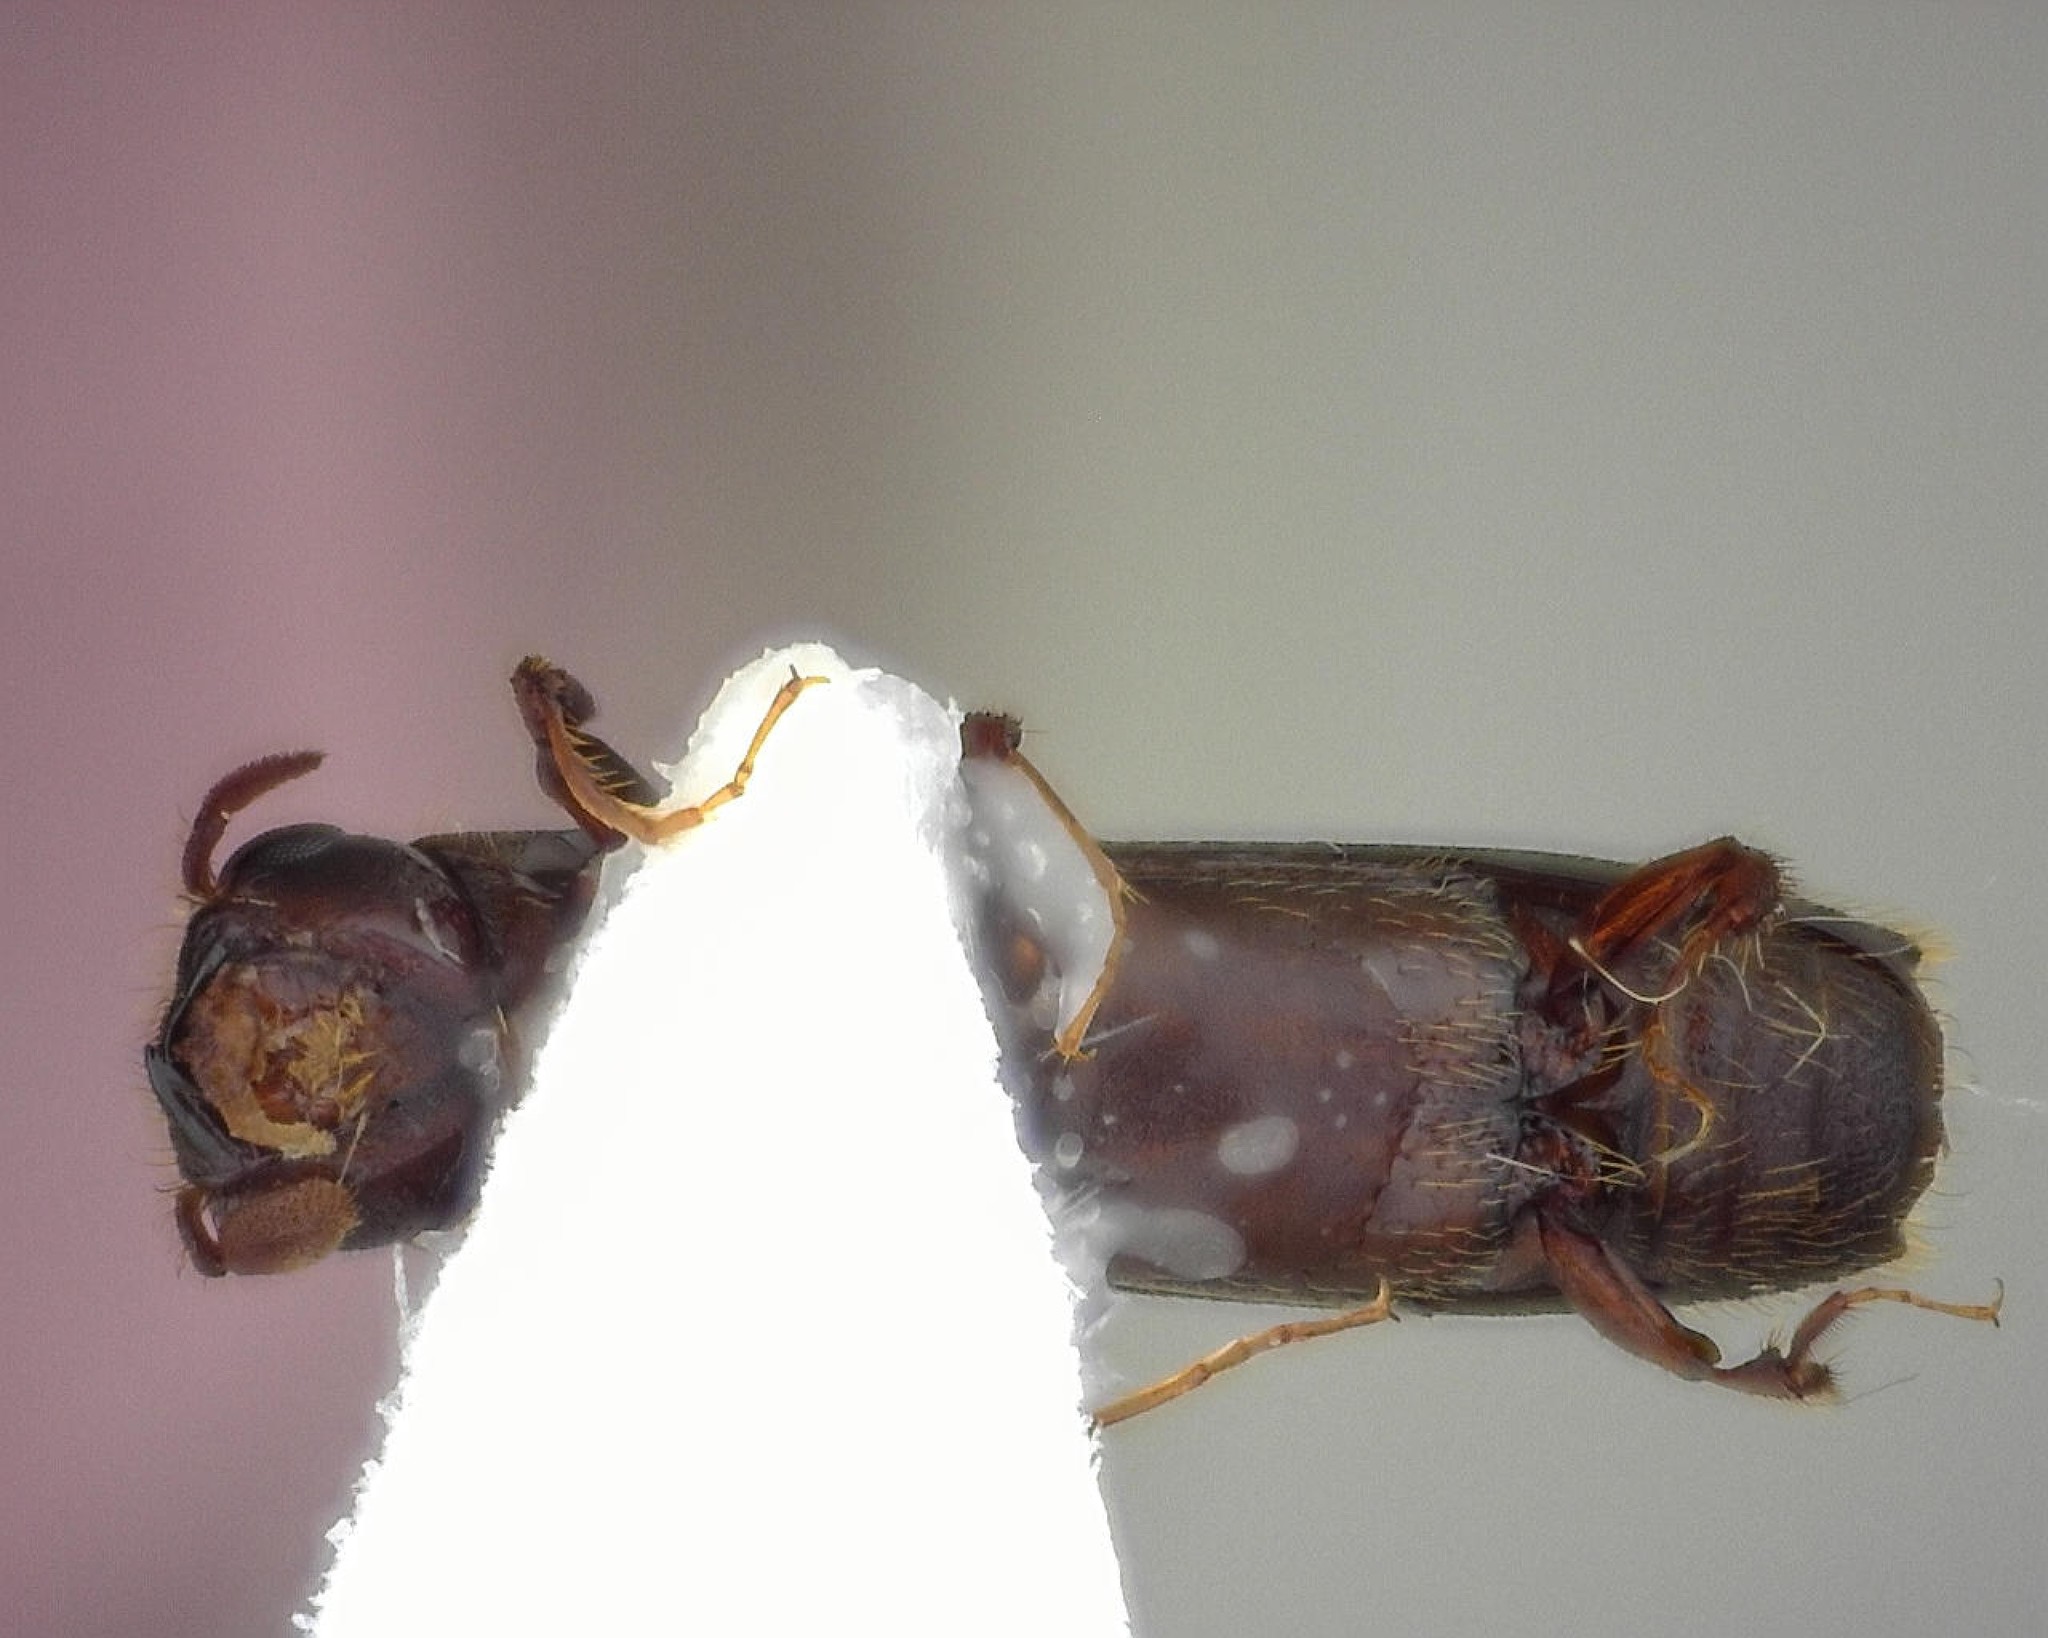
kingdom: Animalia
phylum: Arthropoda
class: Insecta
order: Coleoptera
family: Curculionidae
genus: Oxoplatypus
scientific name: Oxoplatypus quadridentatus
